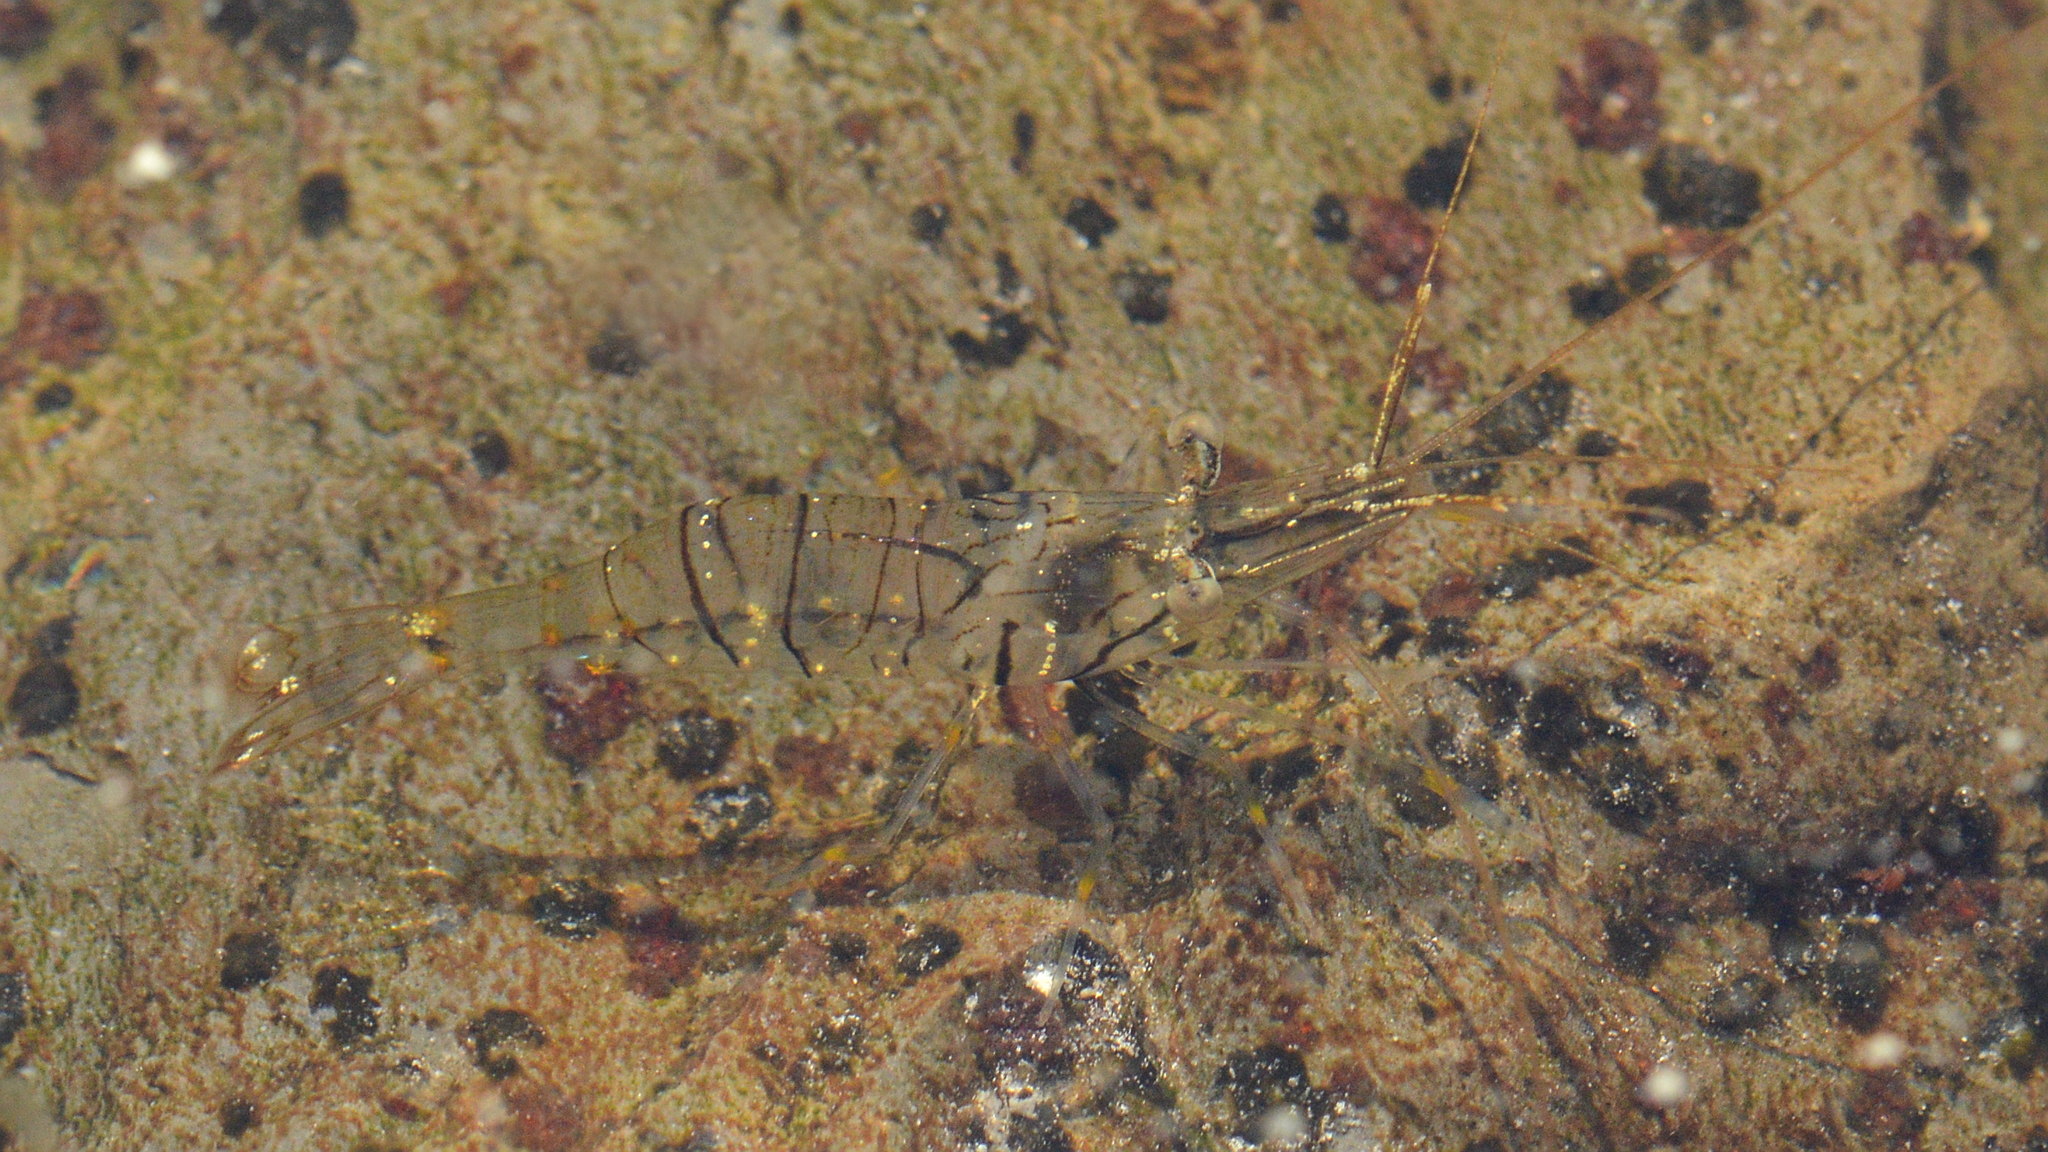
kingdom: Animalia
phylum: Arthropoda
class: Malacostraca
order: Decapoda
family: Palaemonidae
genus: Palaemon
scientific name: Palaemon elegans
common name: Grass prawm
